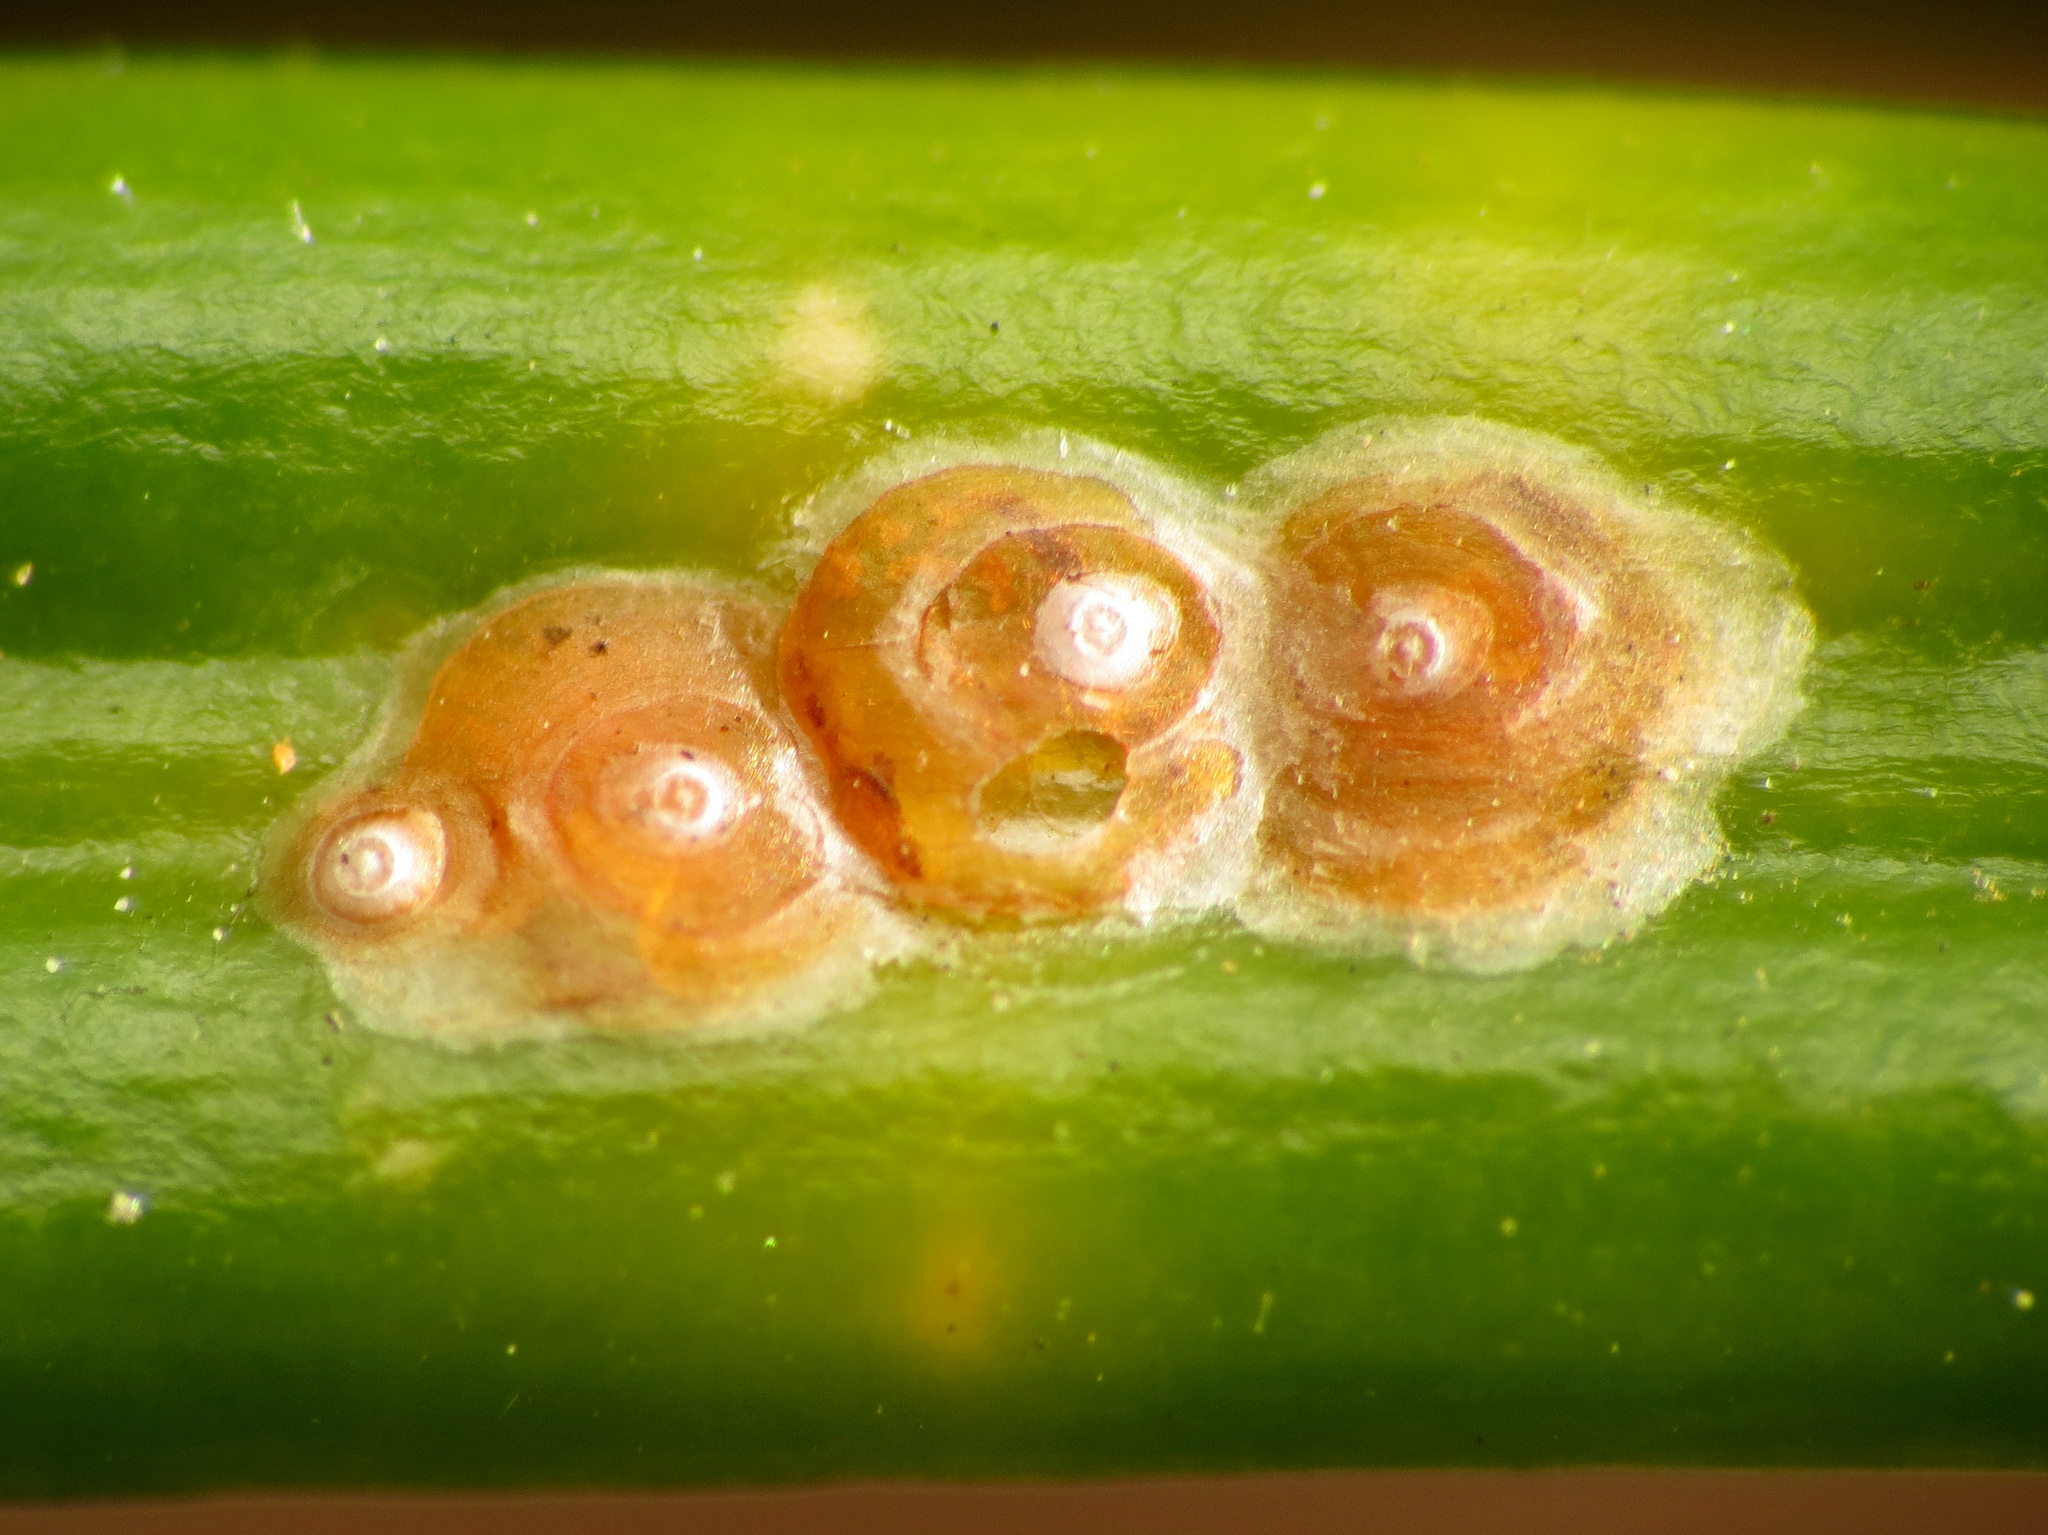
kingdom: Animalia
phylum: Arthropoda
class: Insecta
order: Hemiptera
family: Diaspididae
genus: Aonidiella
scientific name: Aonidiella aurantii
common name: California red scale
